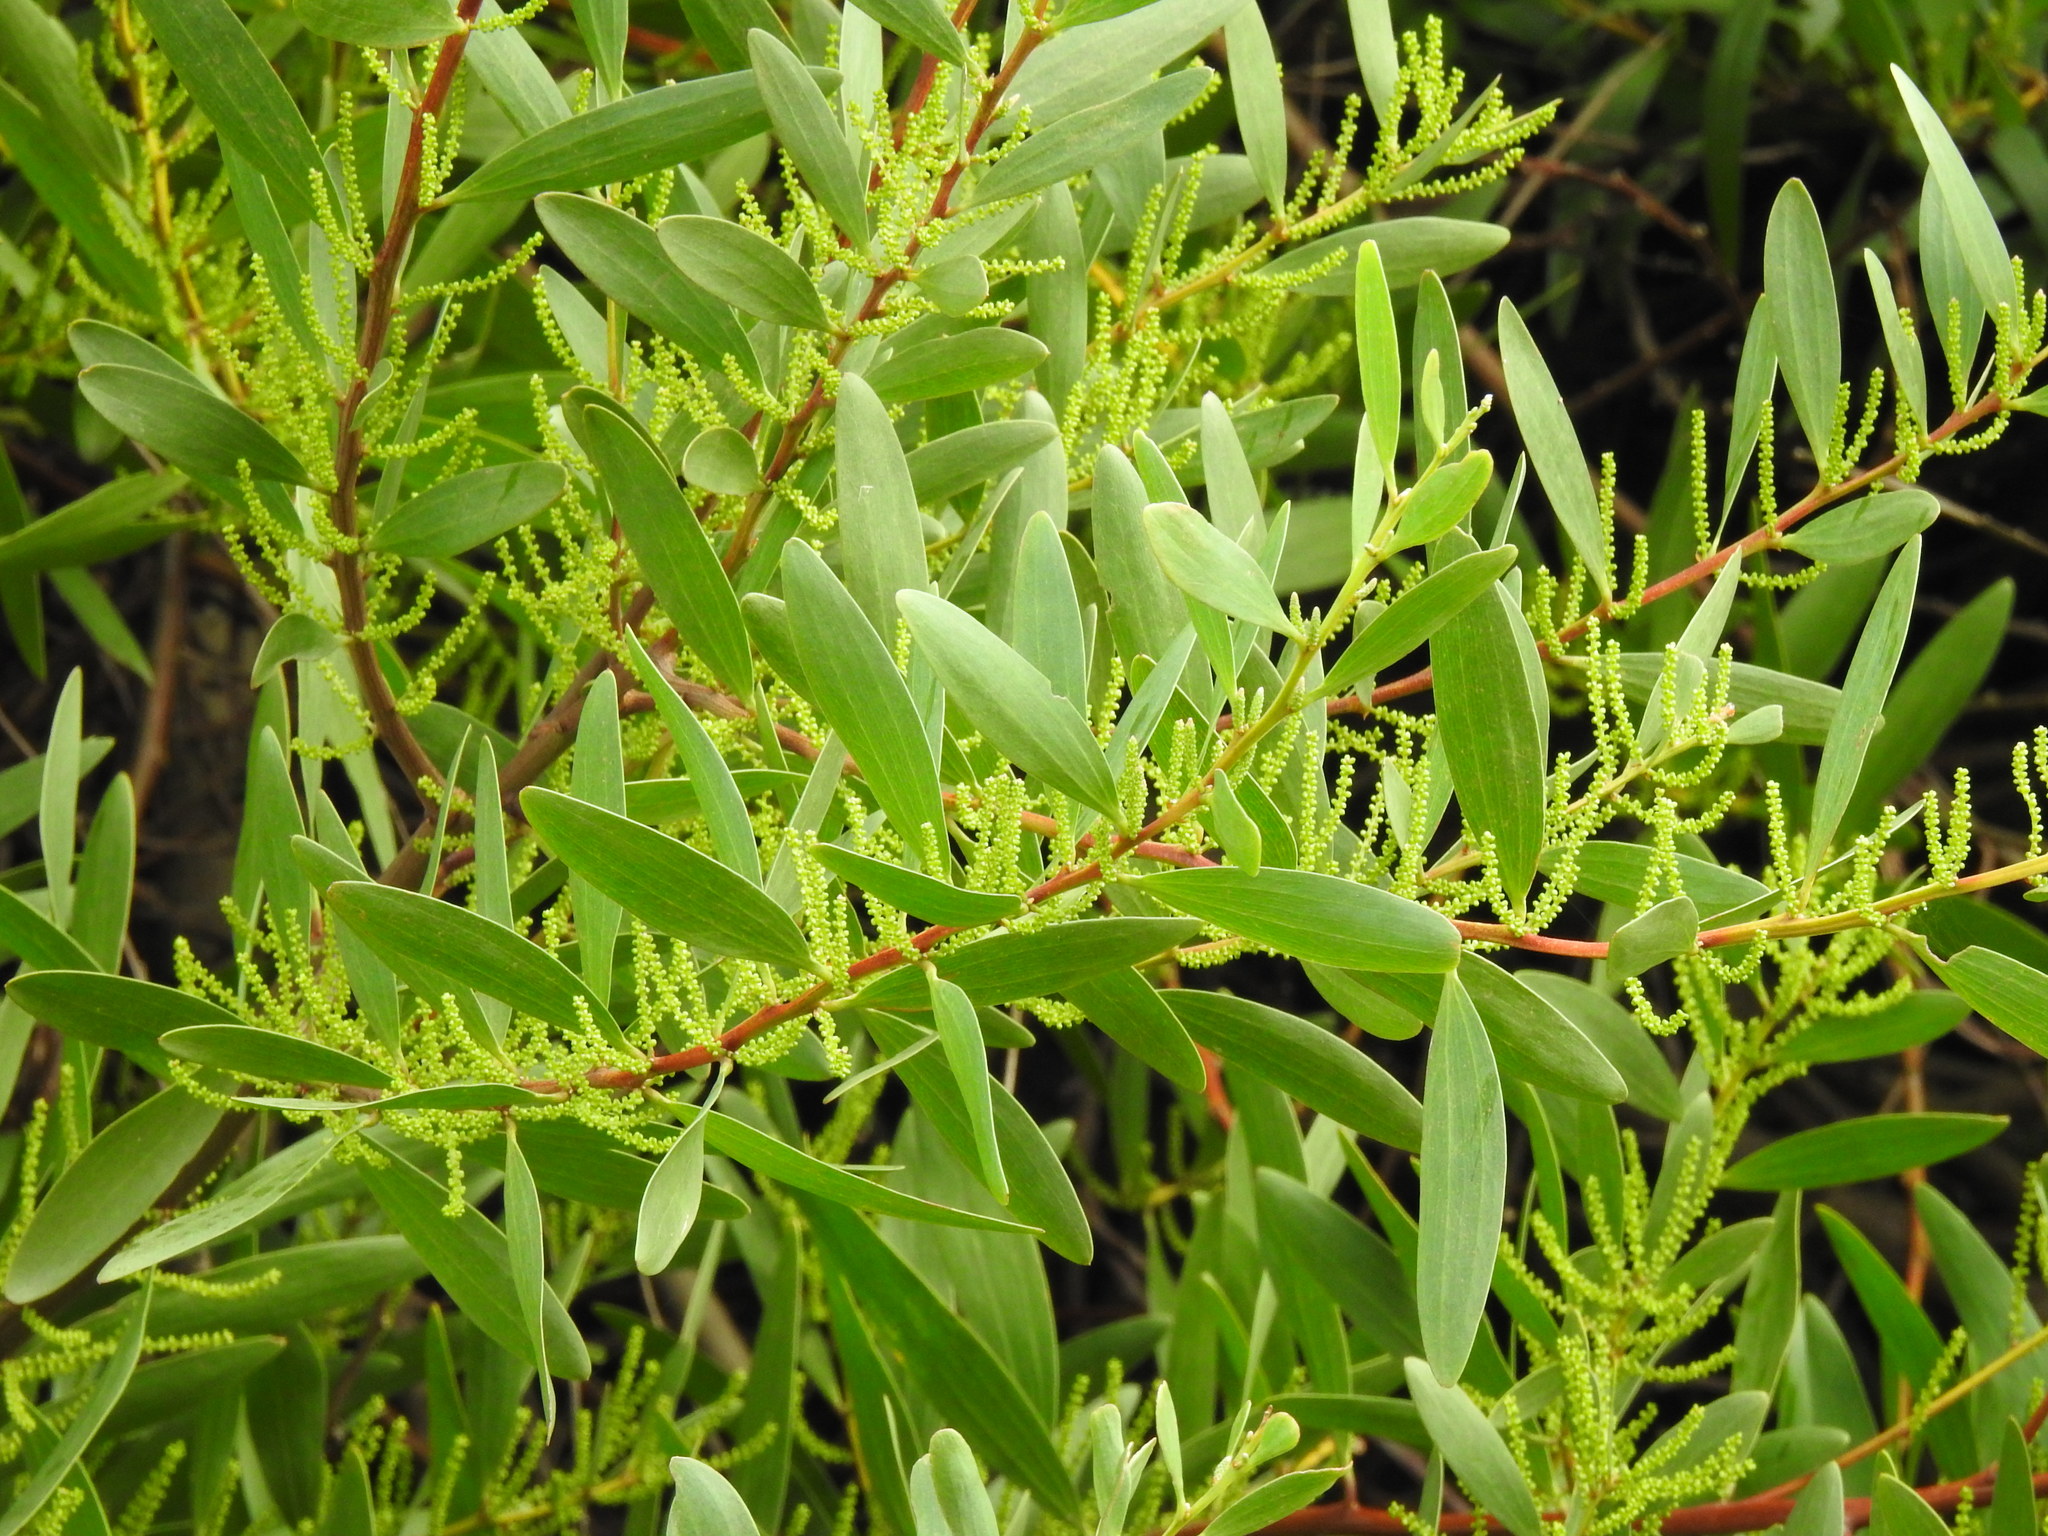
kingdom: Plantae
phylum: Tracheophyta
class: Magnoliopsida
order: Fabales
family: Fabaceae
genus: Acacia
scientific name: Acacia longifolia
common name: Sydney golden wattle
